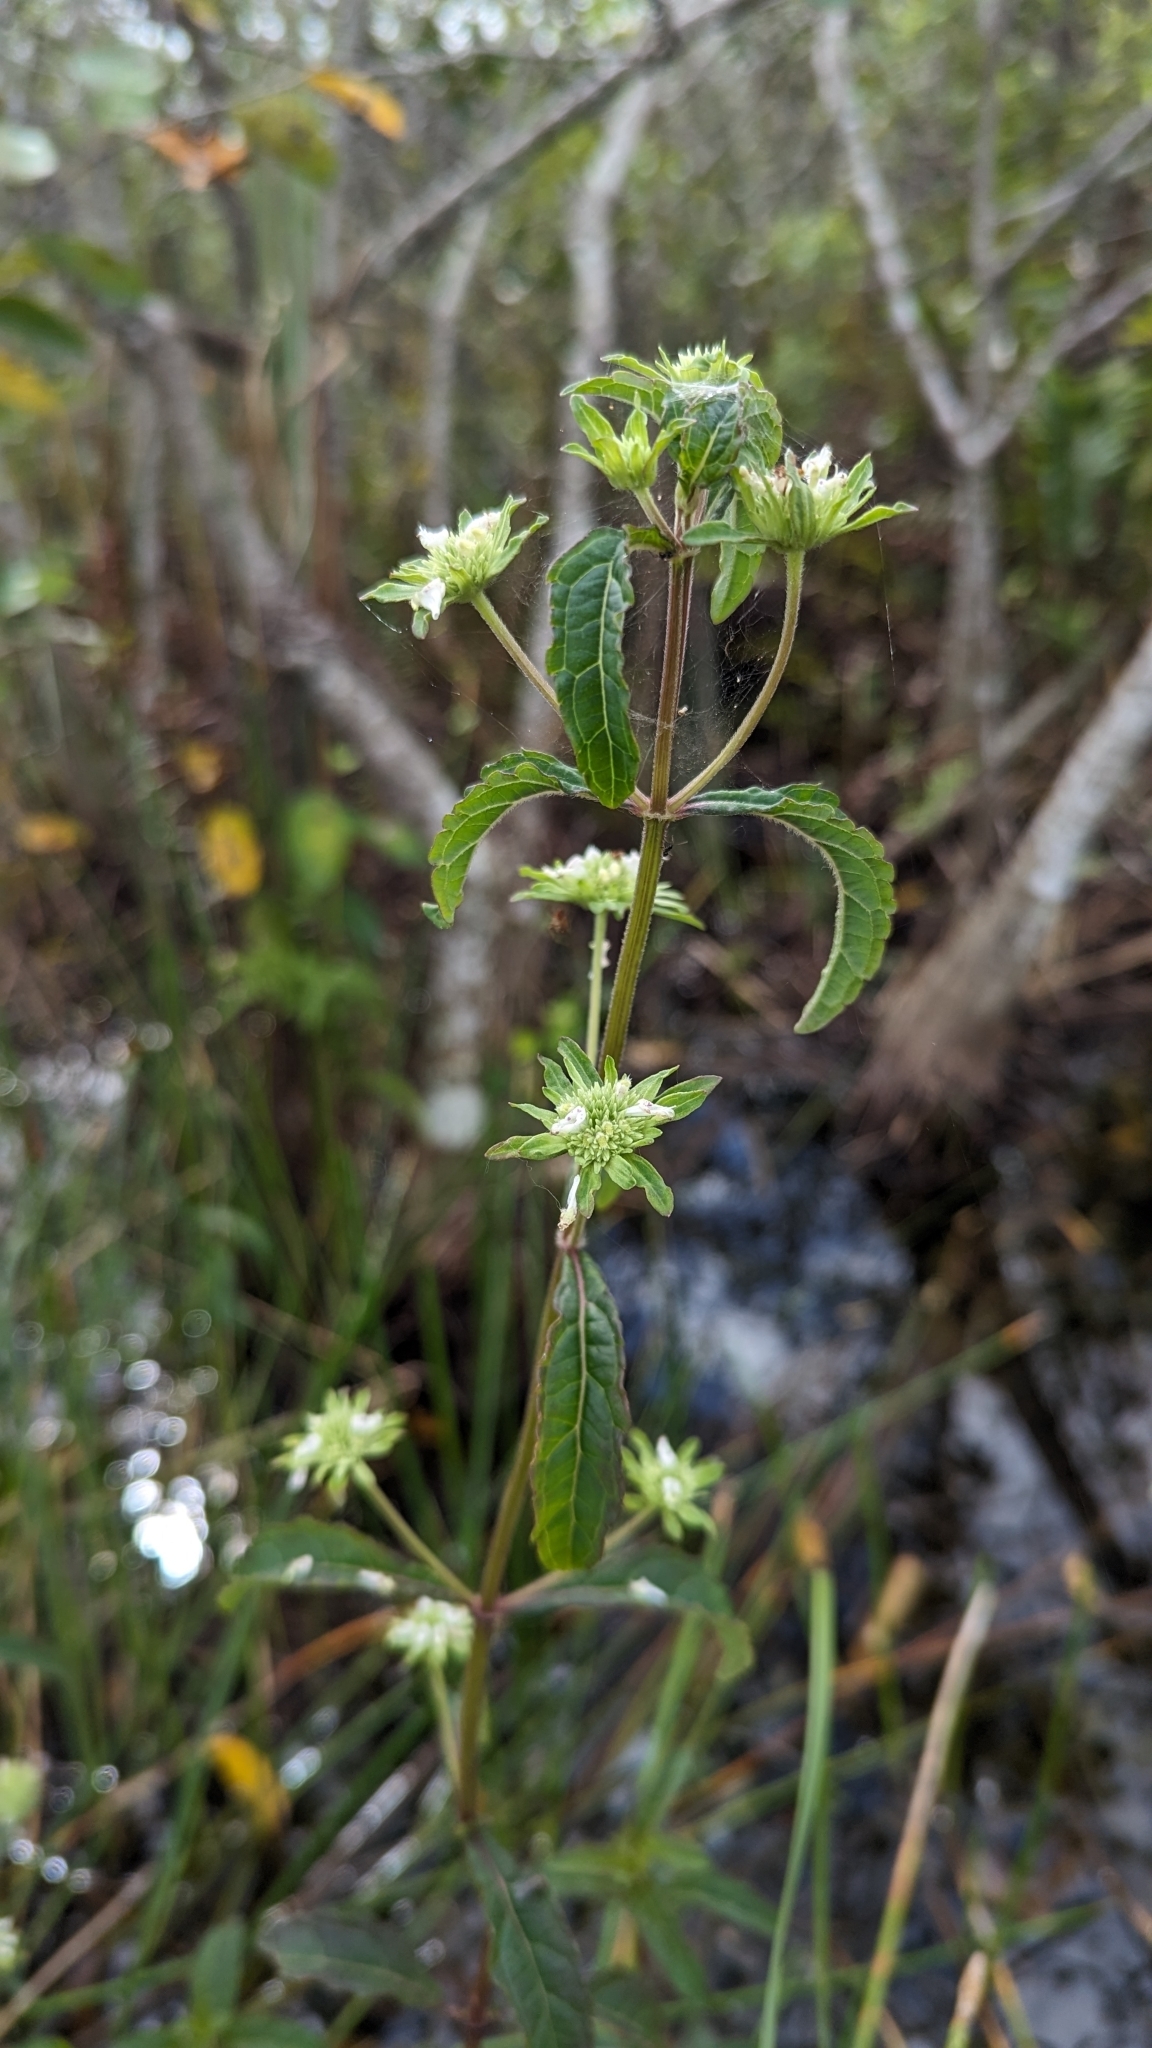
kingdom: Plantae
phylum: Tracheophyta
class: Magnoliopsida
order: Lamiales
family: Lamiaceae
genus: Hyptis
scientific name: Hyptis alata
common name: Cluster bush-mint
